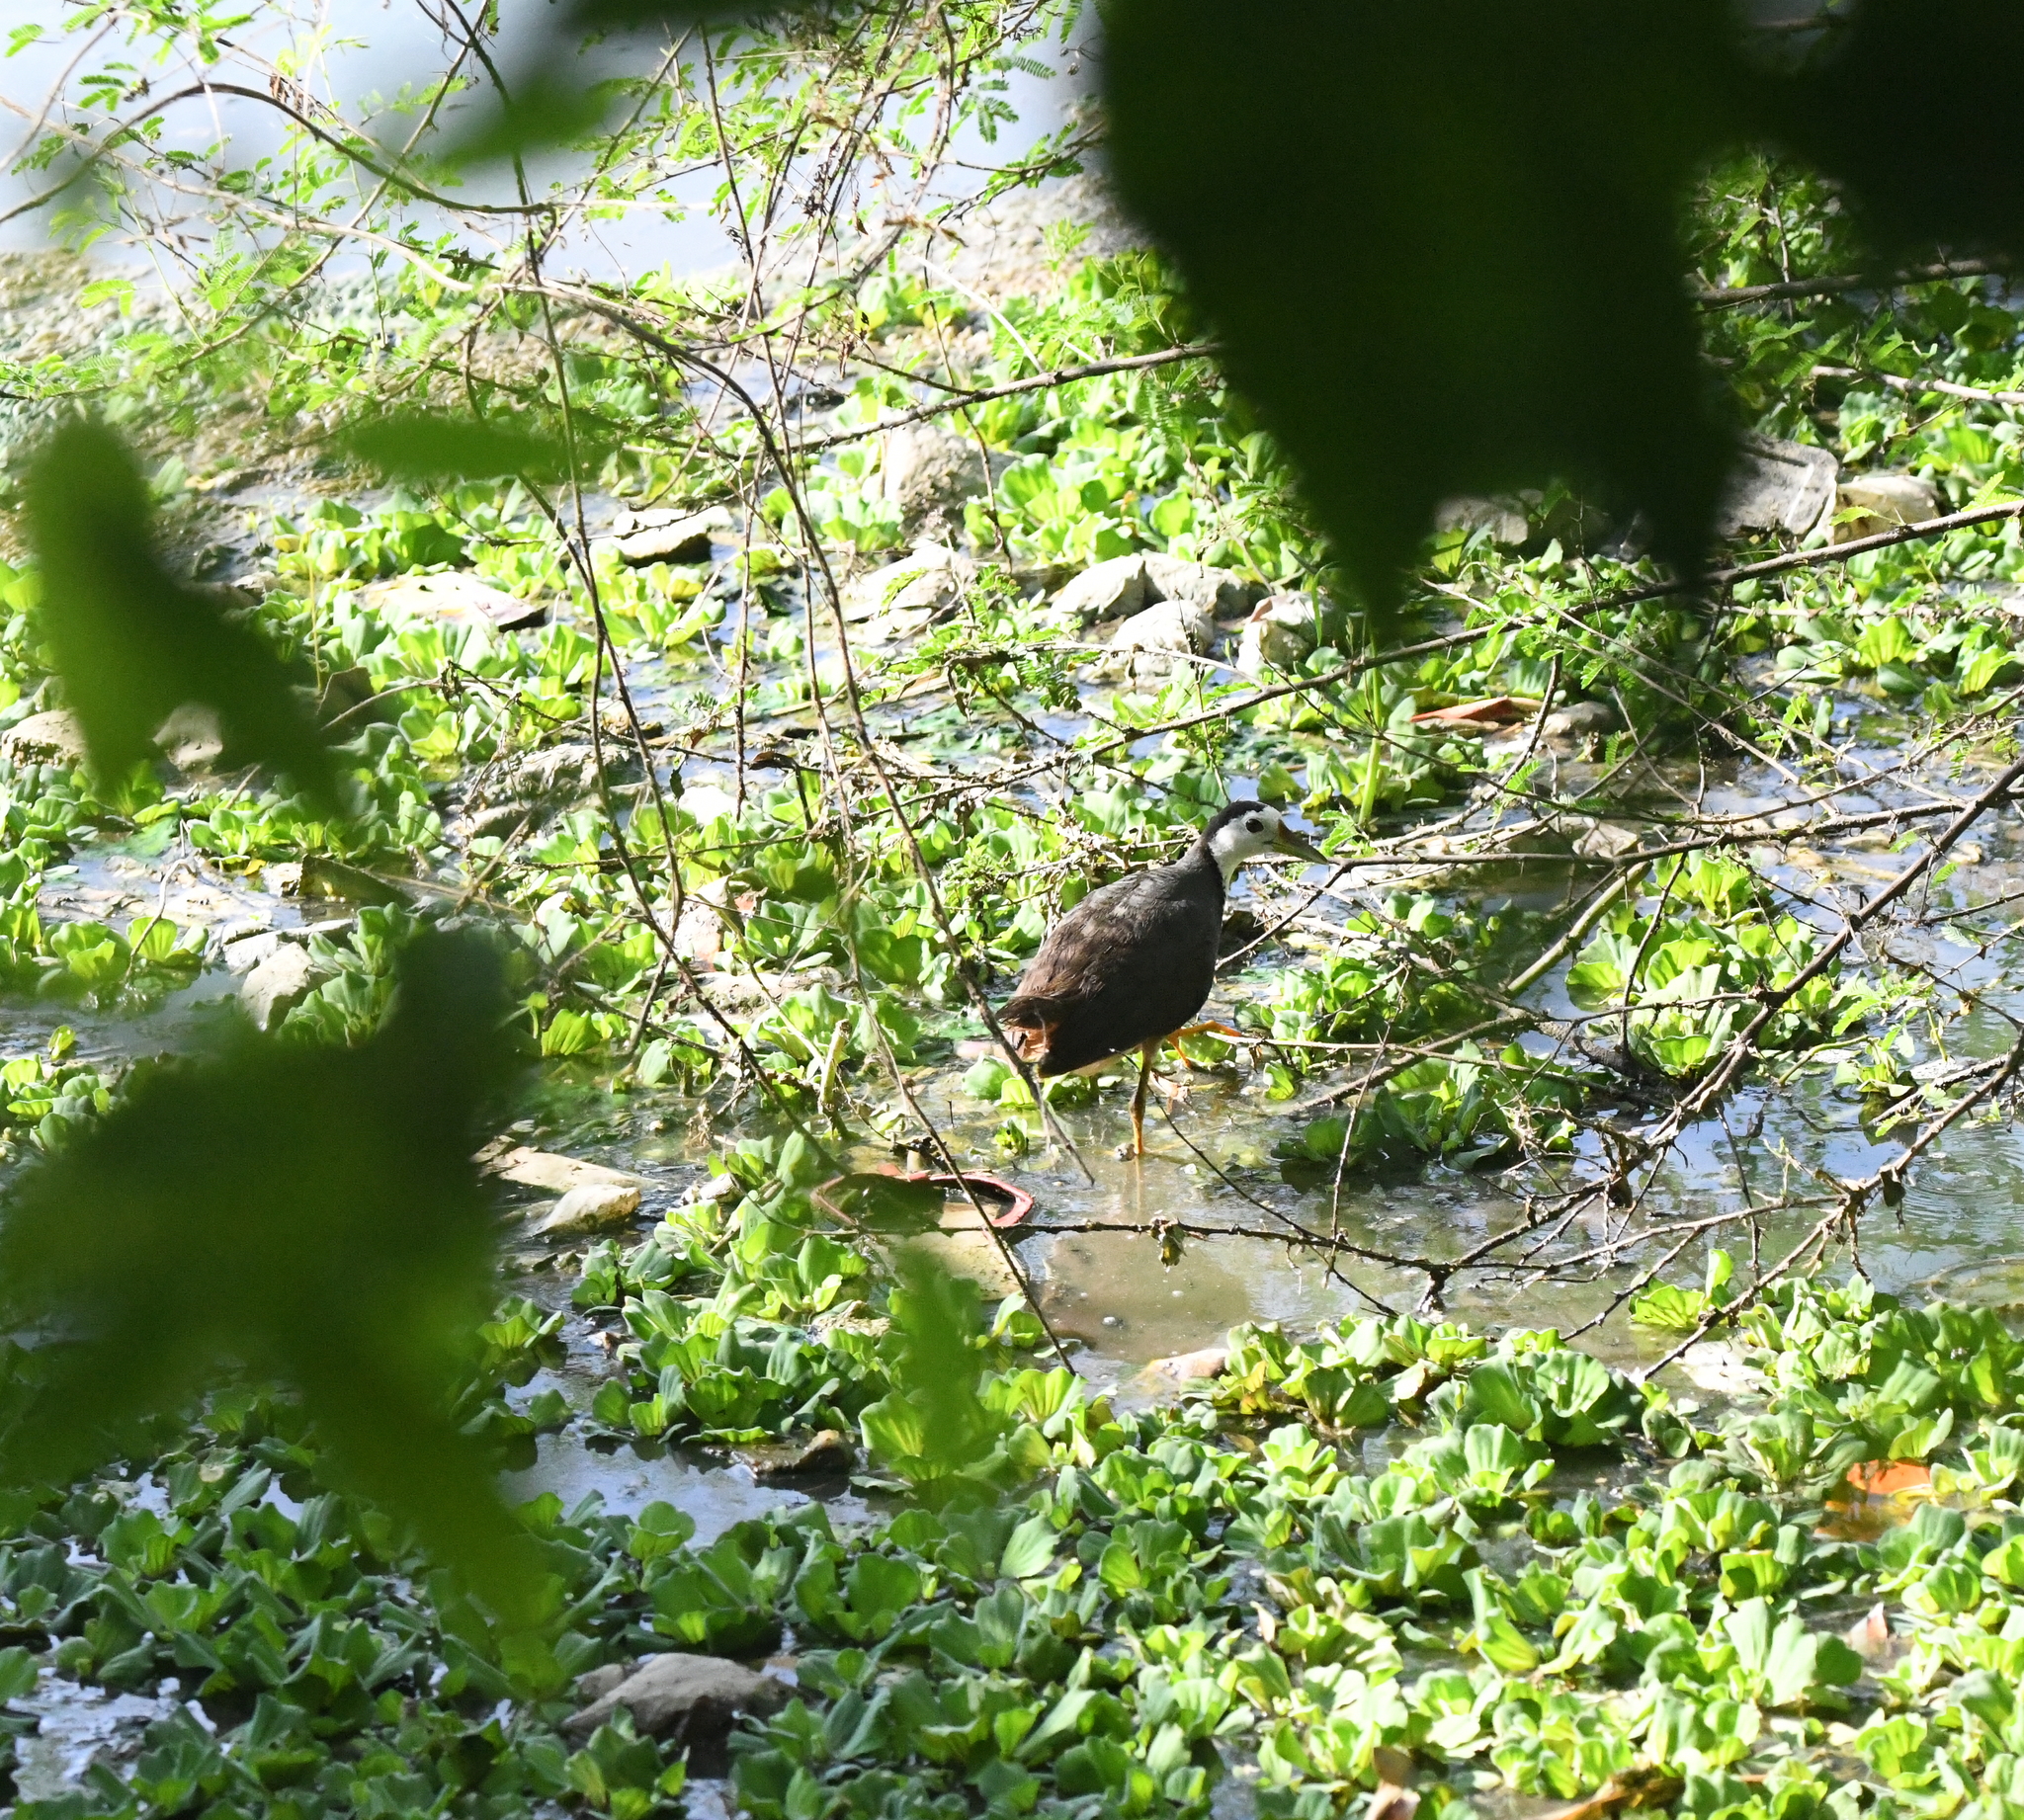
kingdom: Animalia
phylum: Chordata
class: Aves
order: Gruiformes
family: Rallidae
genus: Amaurornis
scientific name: Amaurornis phoenicurus
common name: White-breasted waterhen
